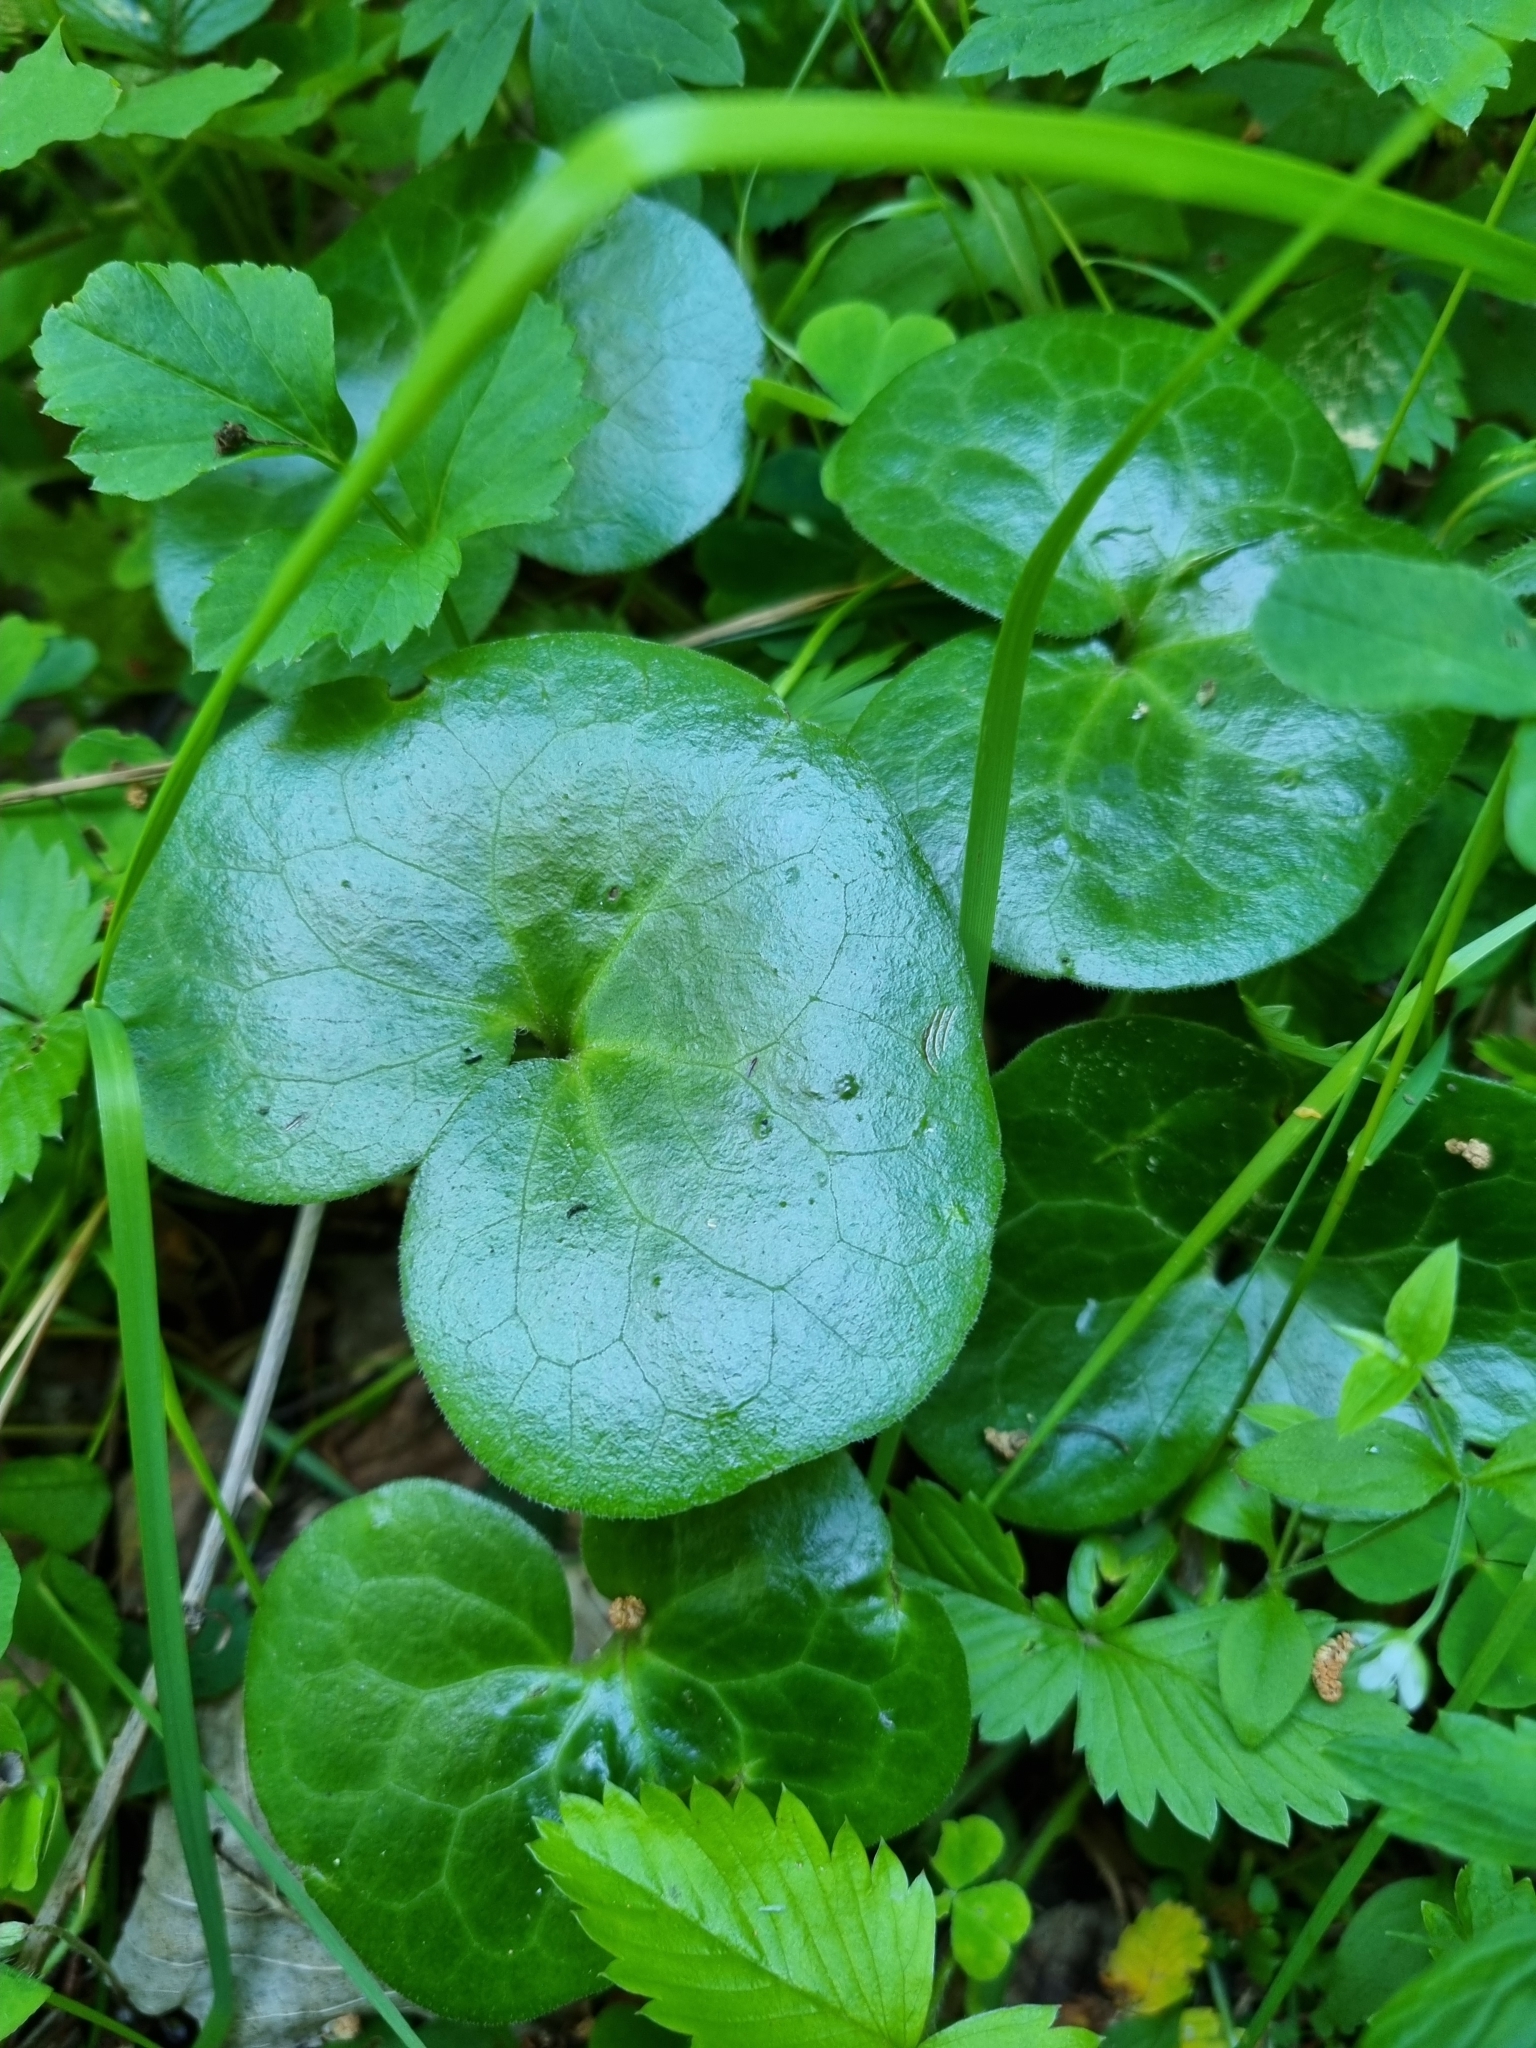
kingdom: Plantae
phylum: Tracheophyta
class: Magnoliopsida
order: Piperales
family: Aristolochiaceae
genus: Asarum
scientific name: Asarum europaeum
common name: Asarabacca
